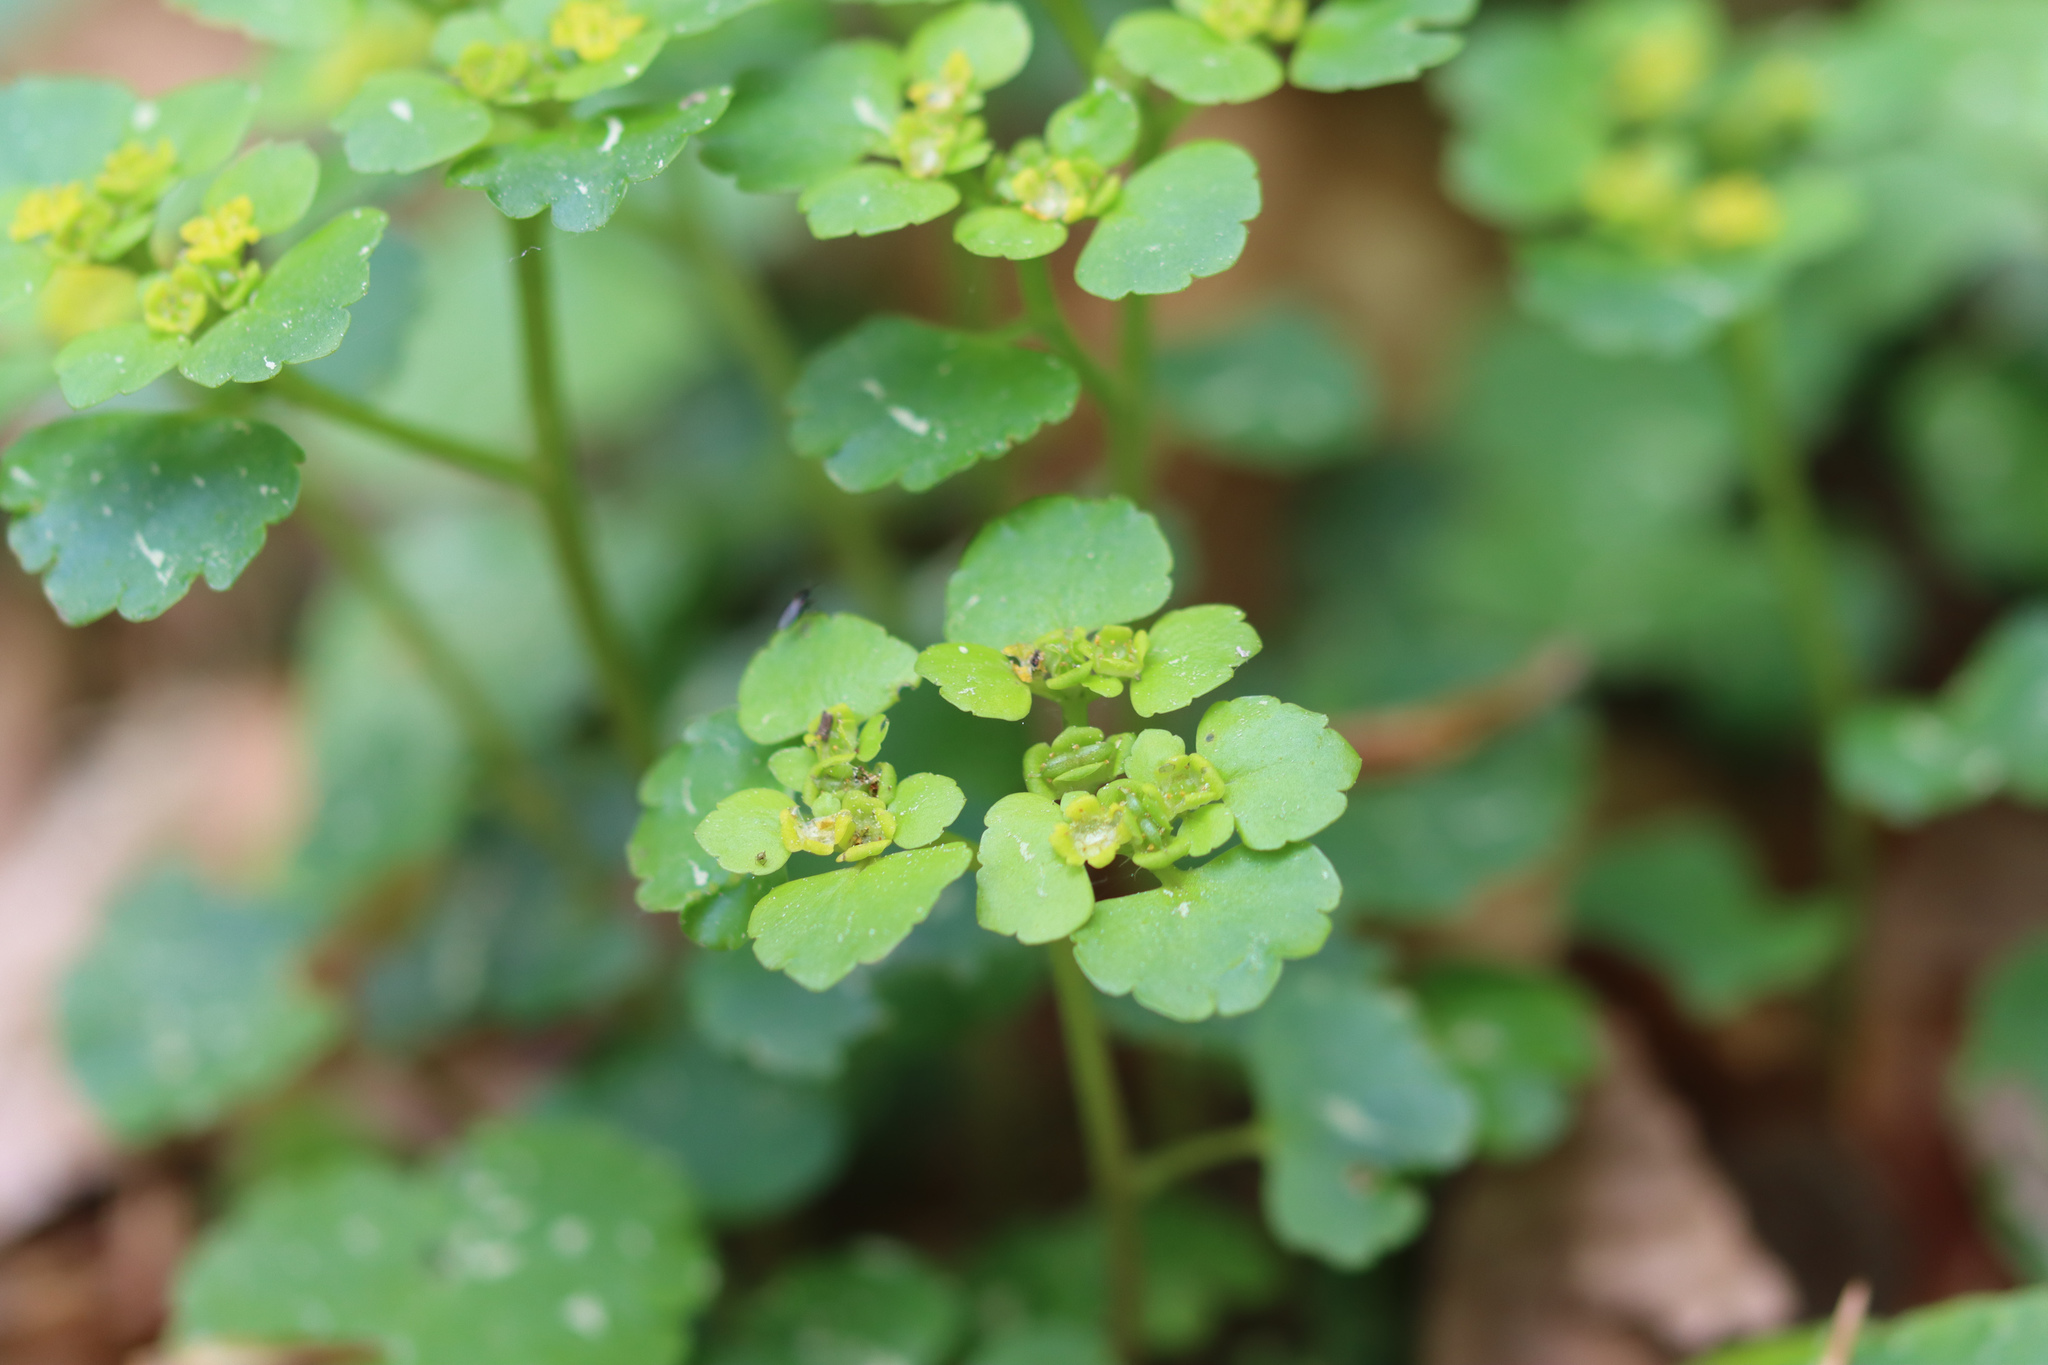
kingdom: Plantae
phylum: Tracheophyta
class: Magnoliopsida
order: Saxifragales
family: Saxifragaceae
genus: Chrysosplenium
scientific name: Chrysosplenium alternifolium
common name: Alternate-leaved golden-saxifrage
